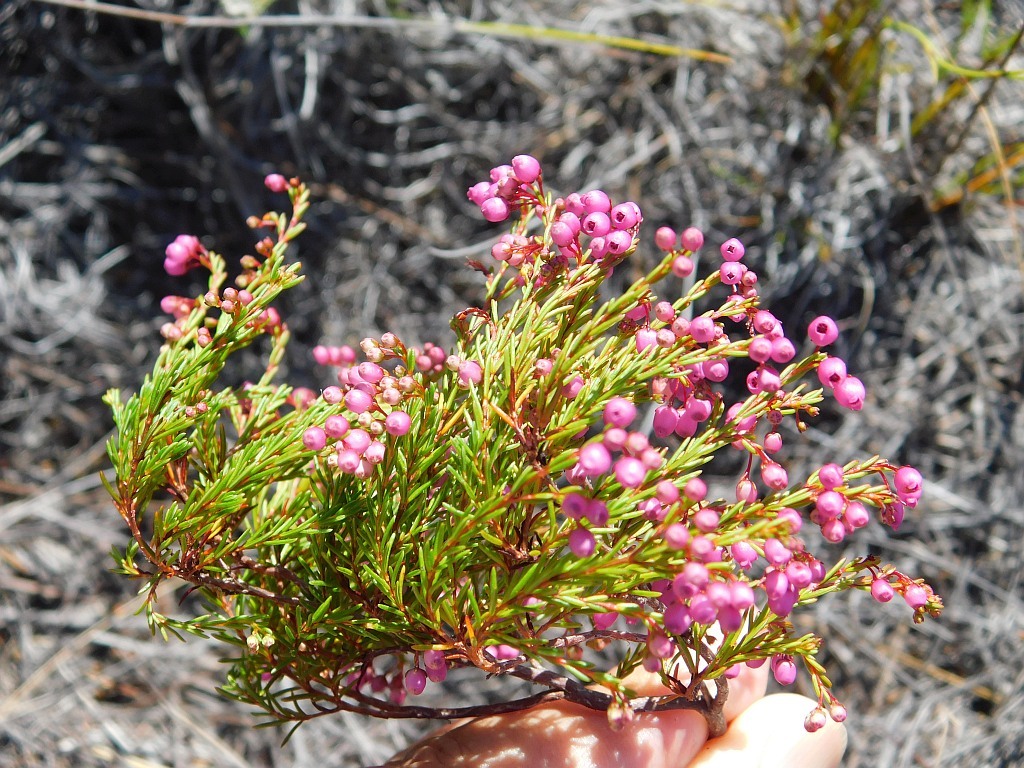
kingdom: Plantae
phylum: Tracheophyta
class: Magnoliopsida
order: Ericales
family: Ericaceae
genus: Erica
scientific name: Erica multumbellifera
